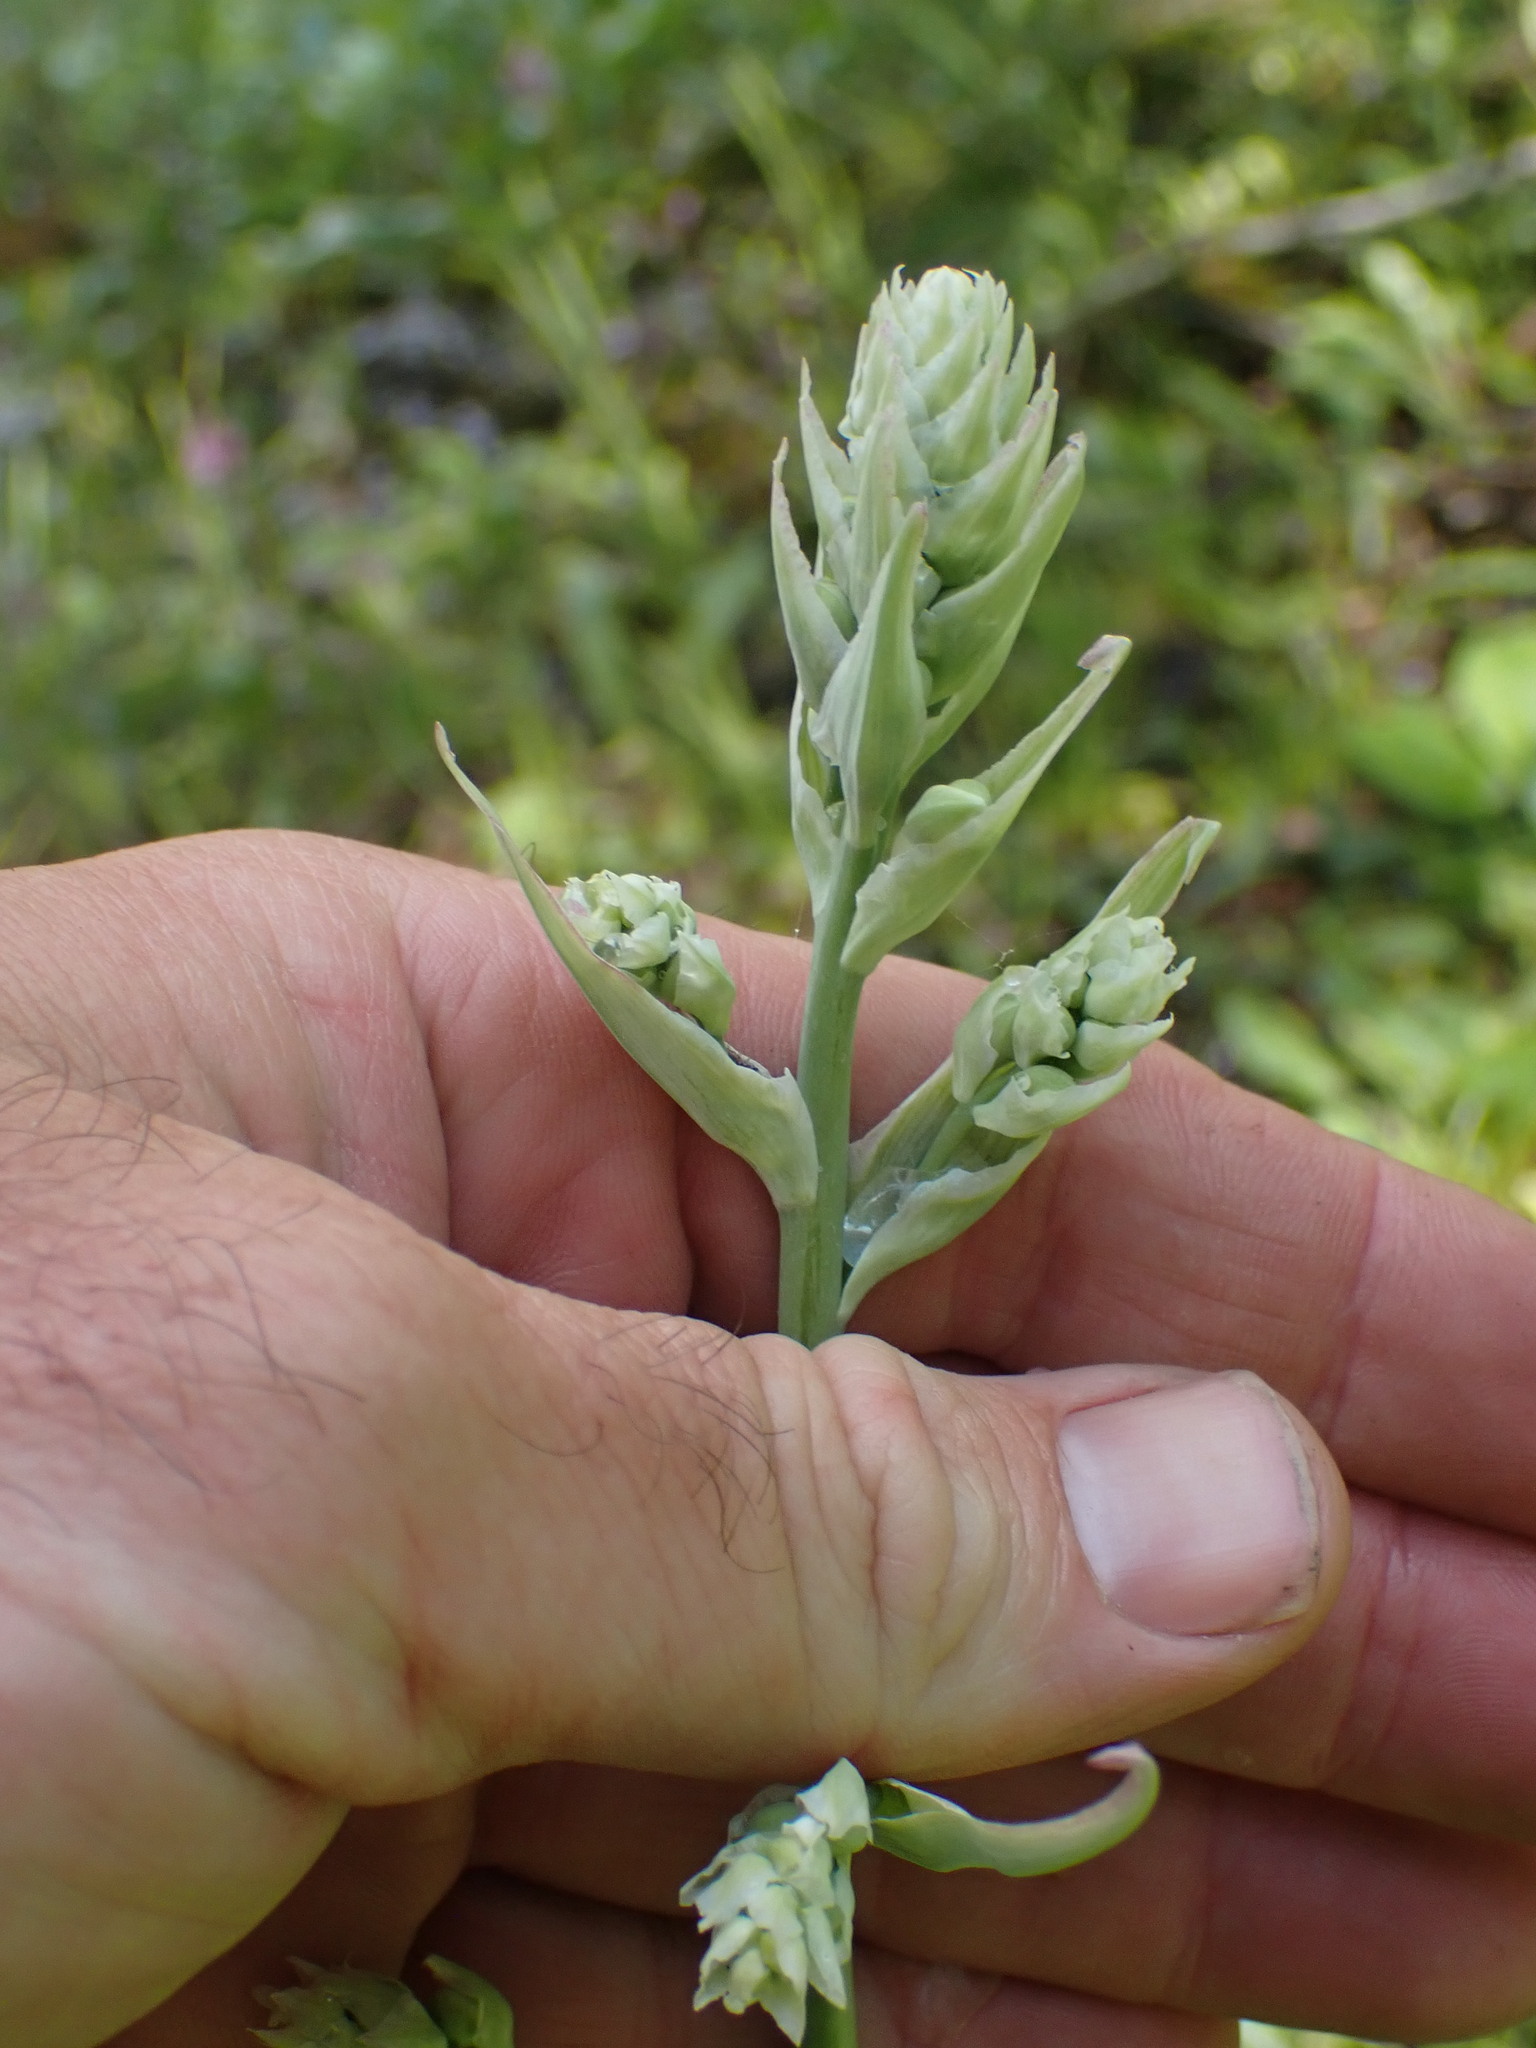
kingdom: Plantae
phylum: Tracheophyta
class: Liliopsida
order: Liliales
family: Melanthiaceae
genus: Anticlea
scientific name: Anticlea elegans
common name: Mountain death camas
